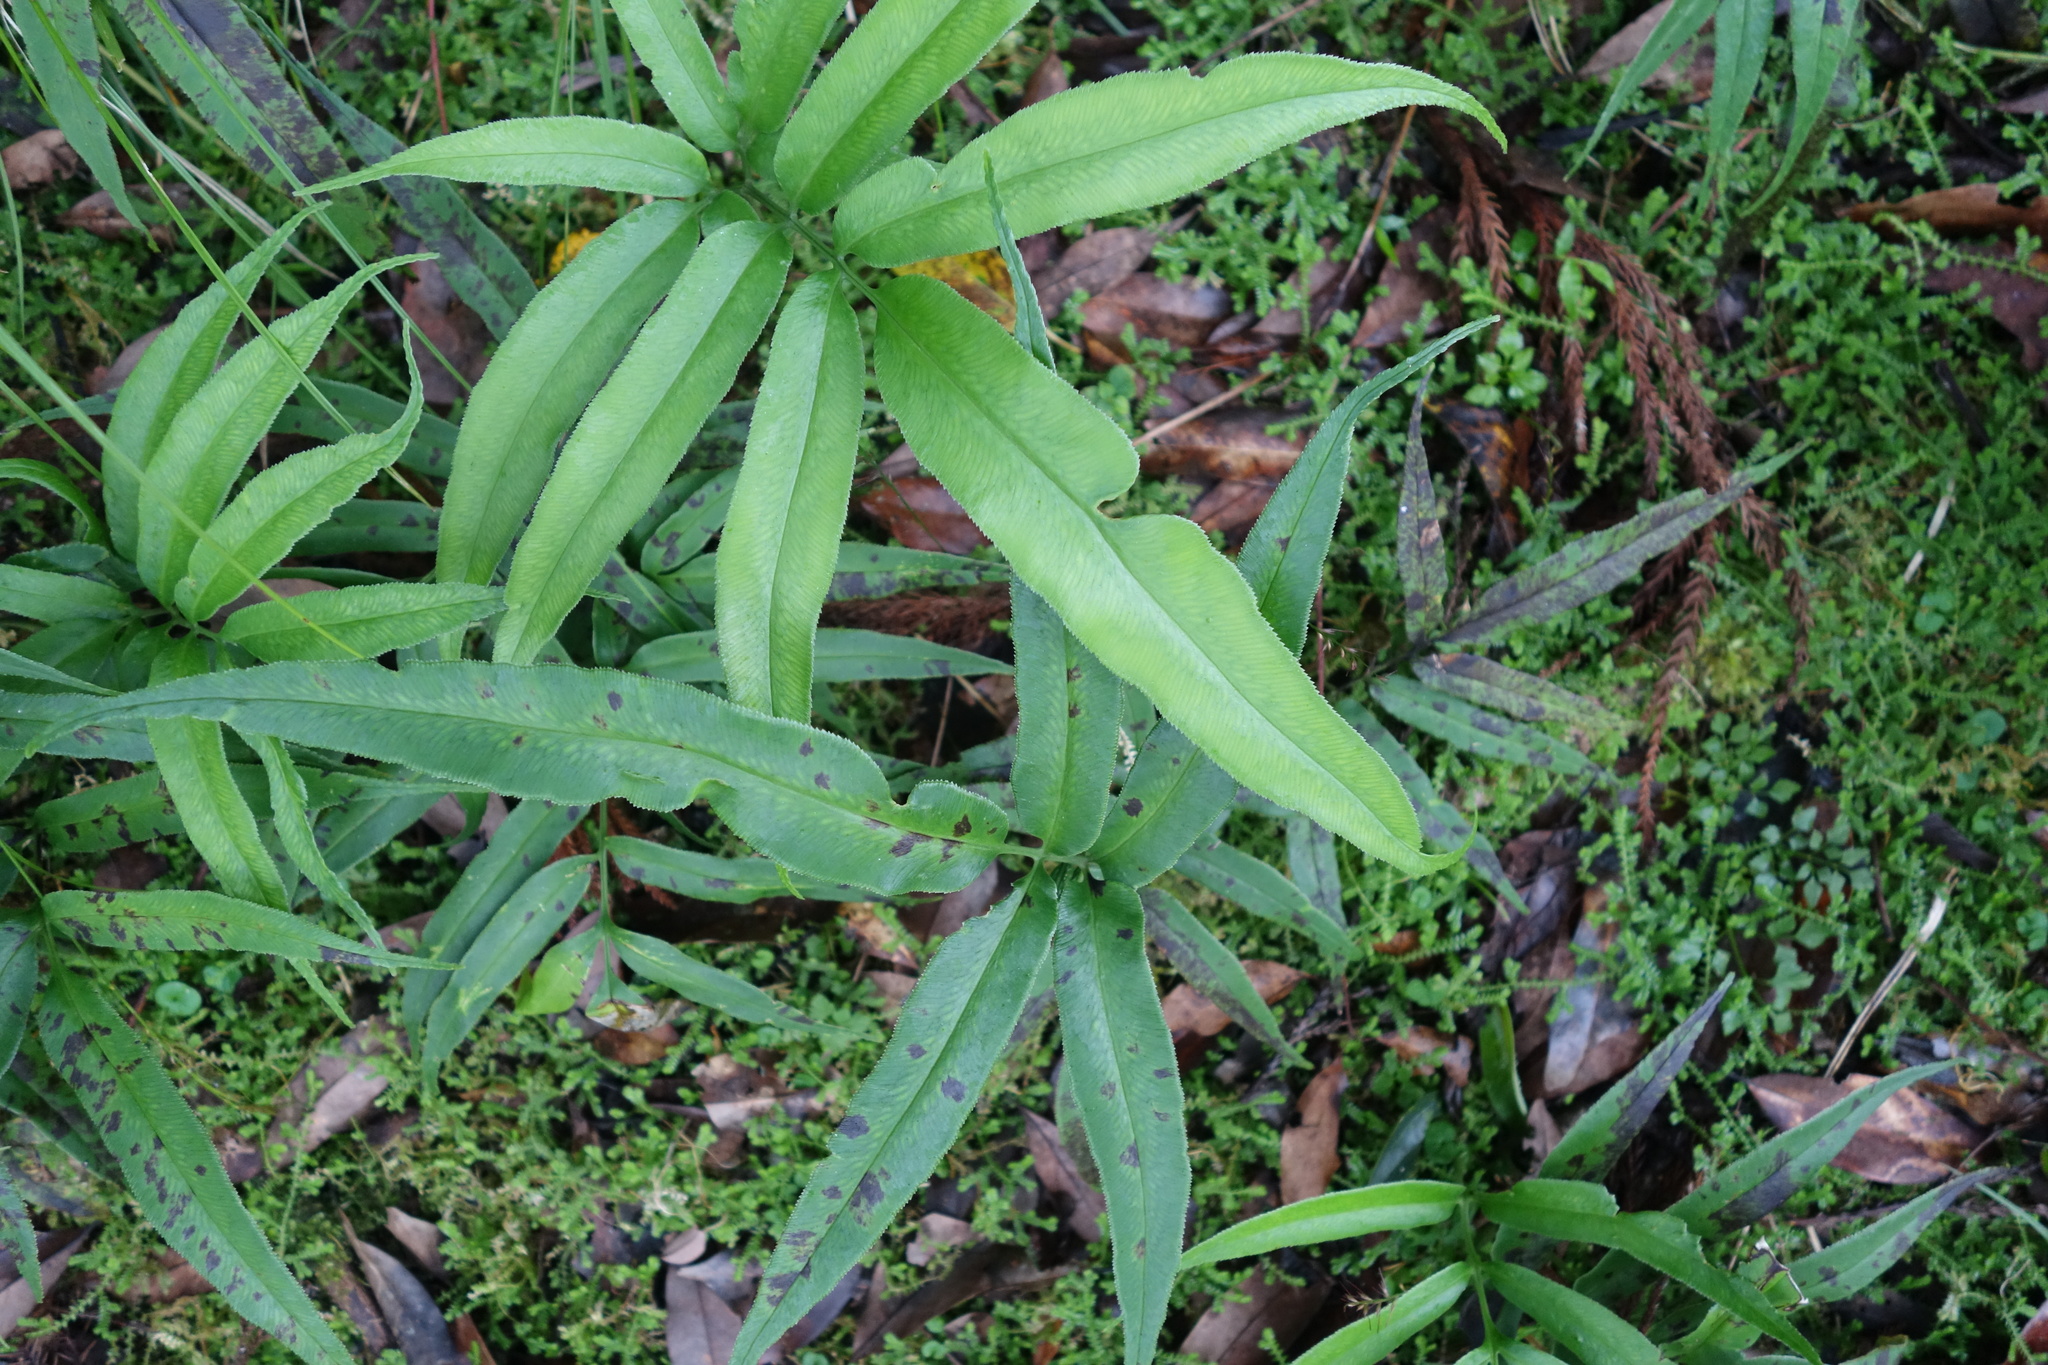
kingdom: Plantae
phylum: Tracheophyta
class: Polypodiopsida
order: Polypodiales
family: Pteridaceae
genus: Coniogramme
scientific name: Coniogramme japonica
